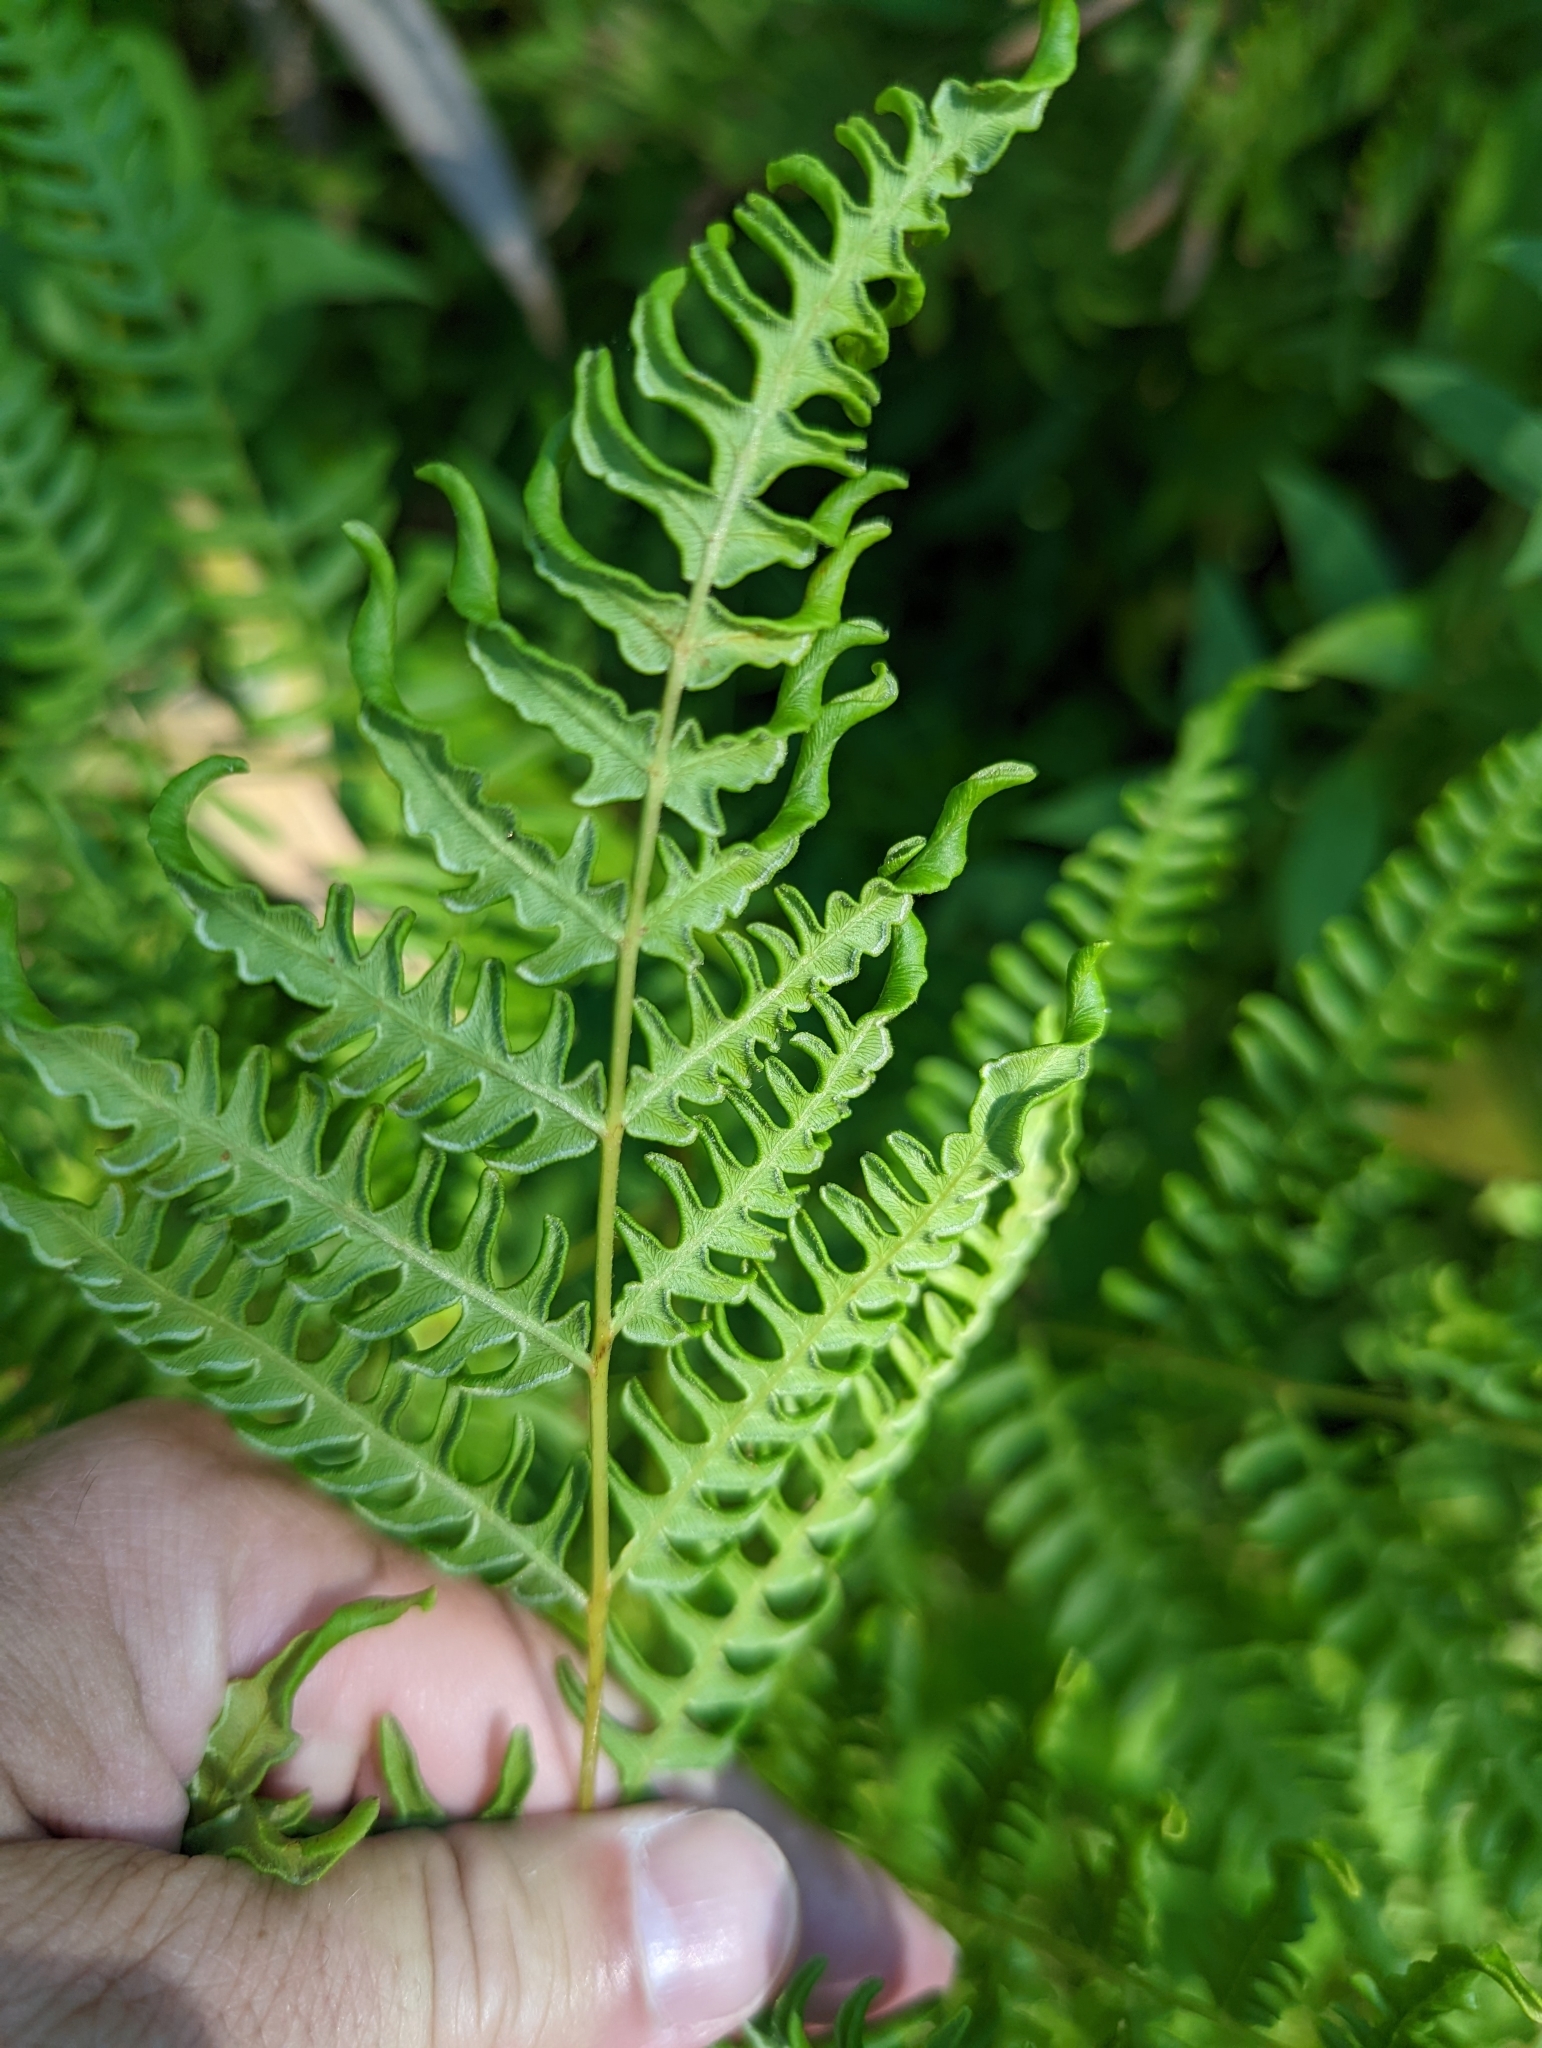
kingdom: Plantae
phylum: Tracheophyta
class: Polypodiopsida
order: Polypodiales
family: Dennstaedtiaceae
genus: Pteridium
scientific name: Pteridium aquilinum
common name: Bracken
